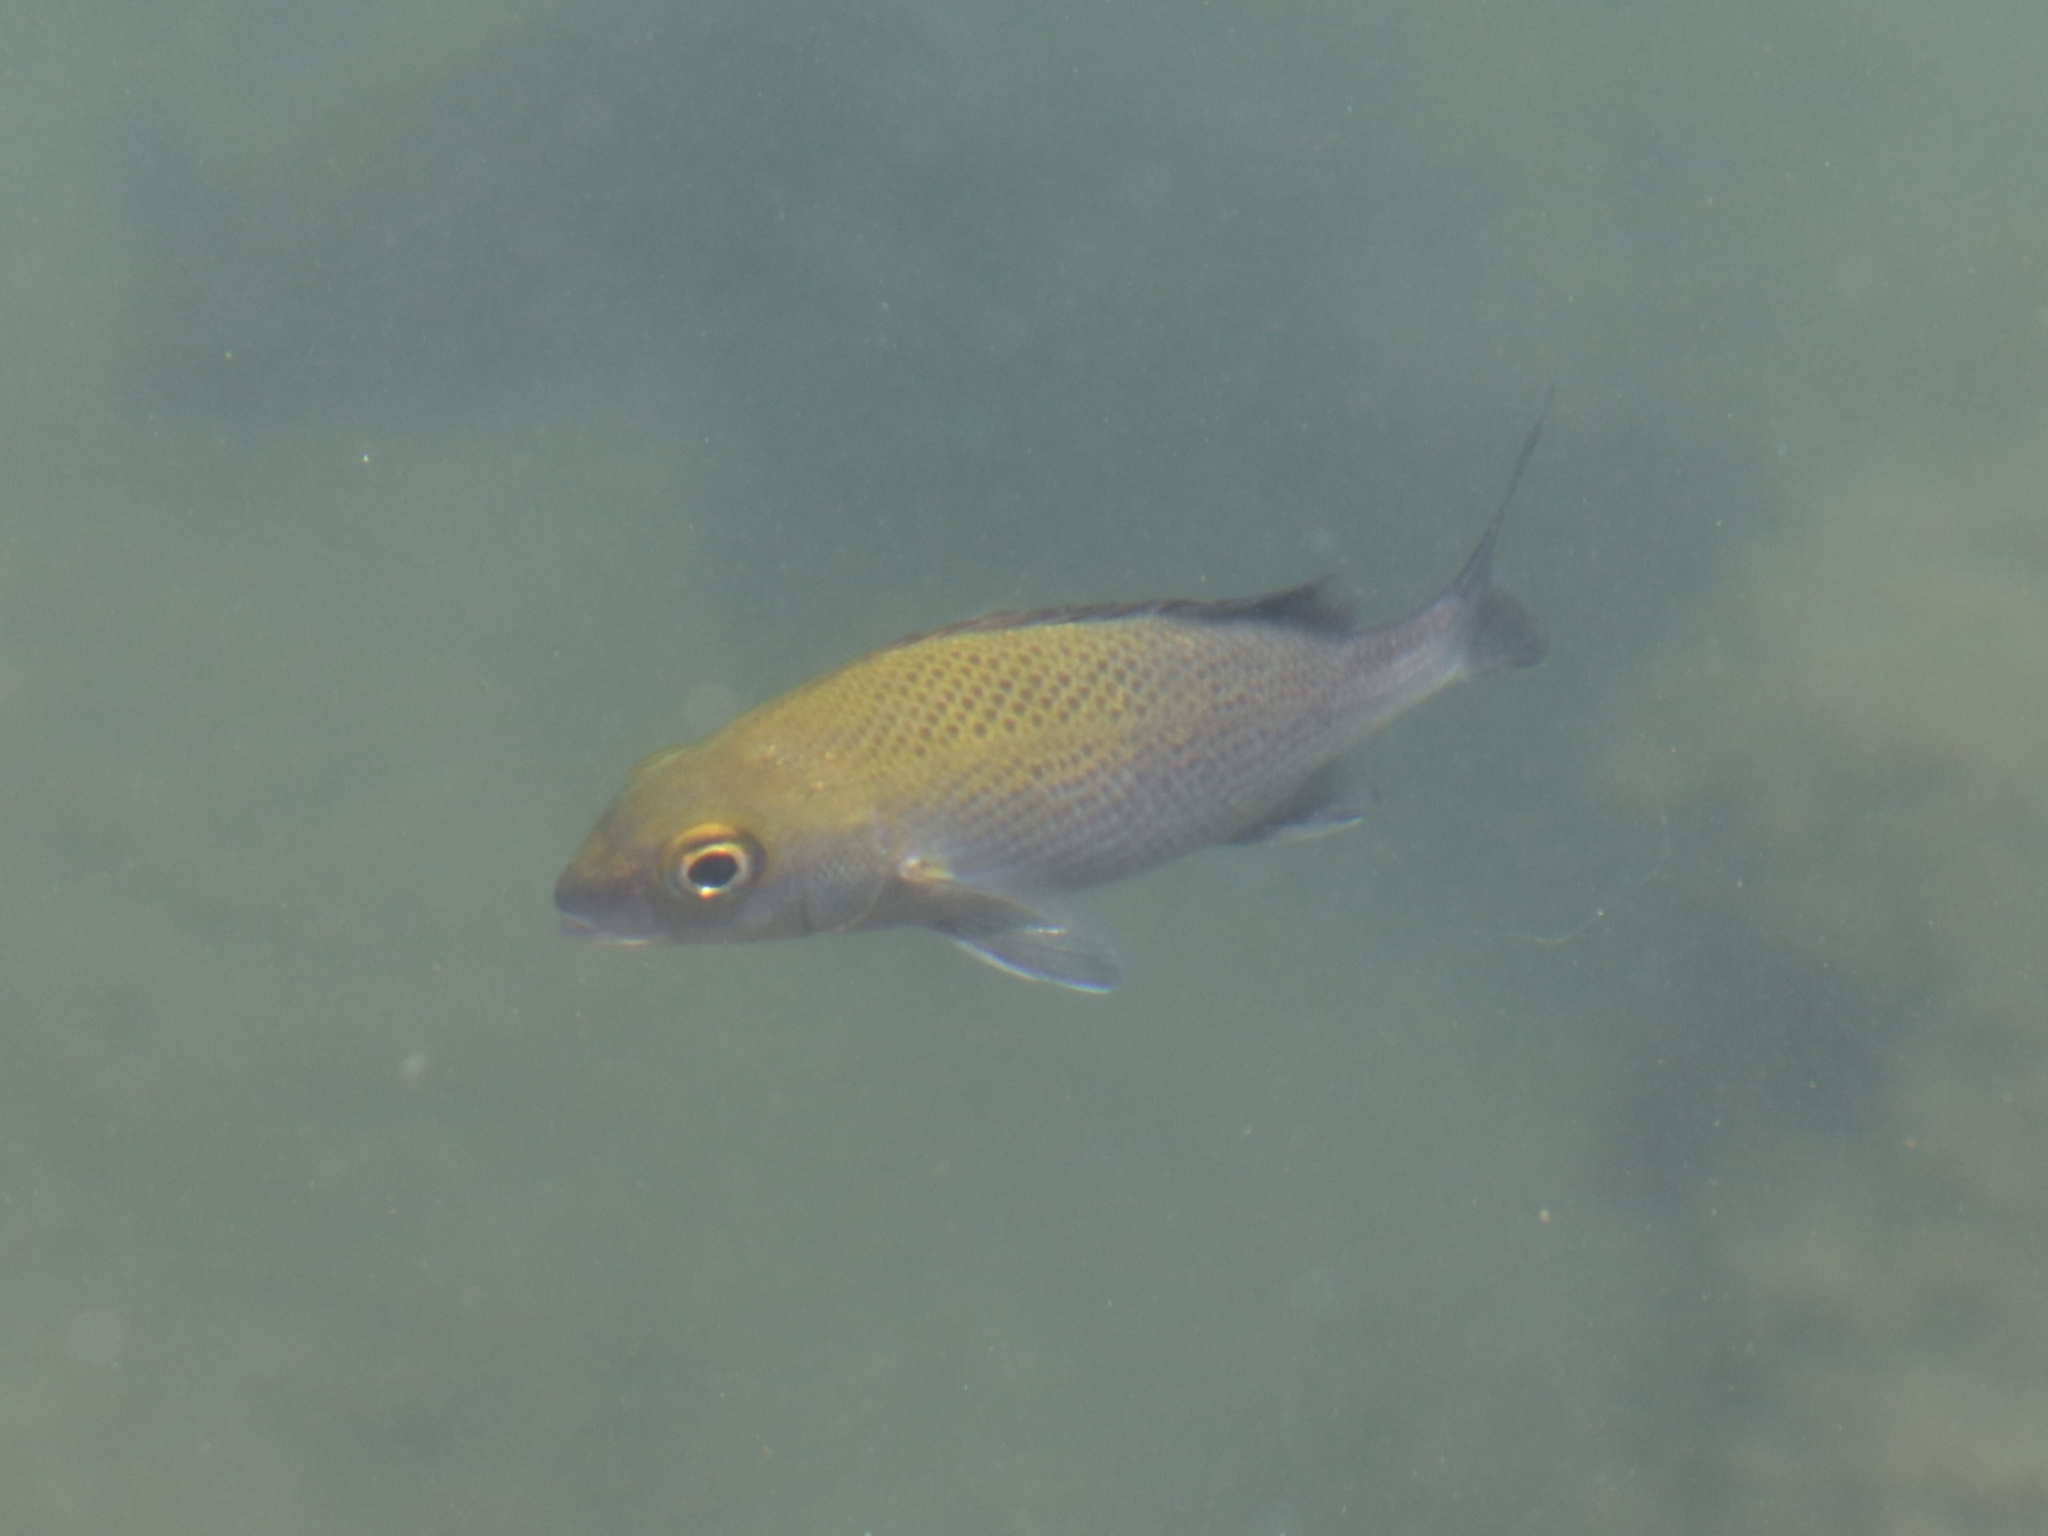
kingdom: Animalia
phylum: Chordata
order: Perciformes
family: Haemulidae
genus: Haemulon
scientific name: Haemulon scudderii
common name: Grey grunt
